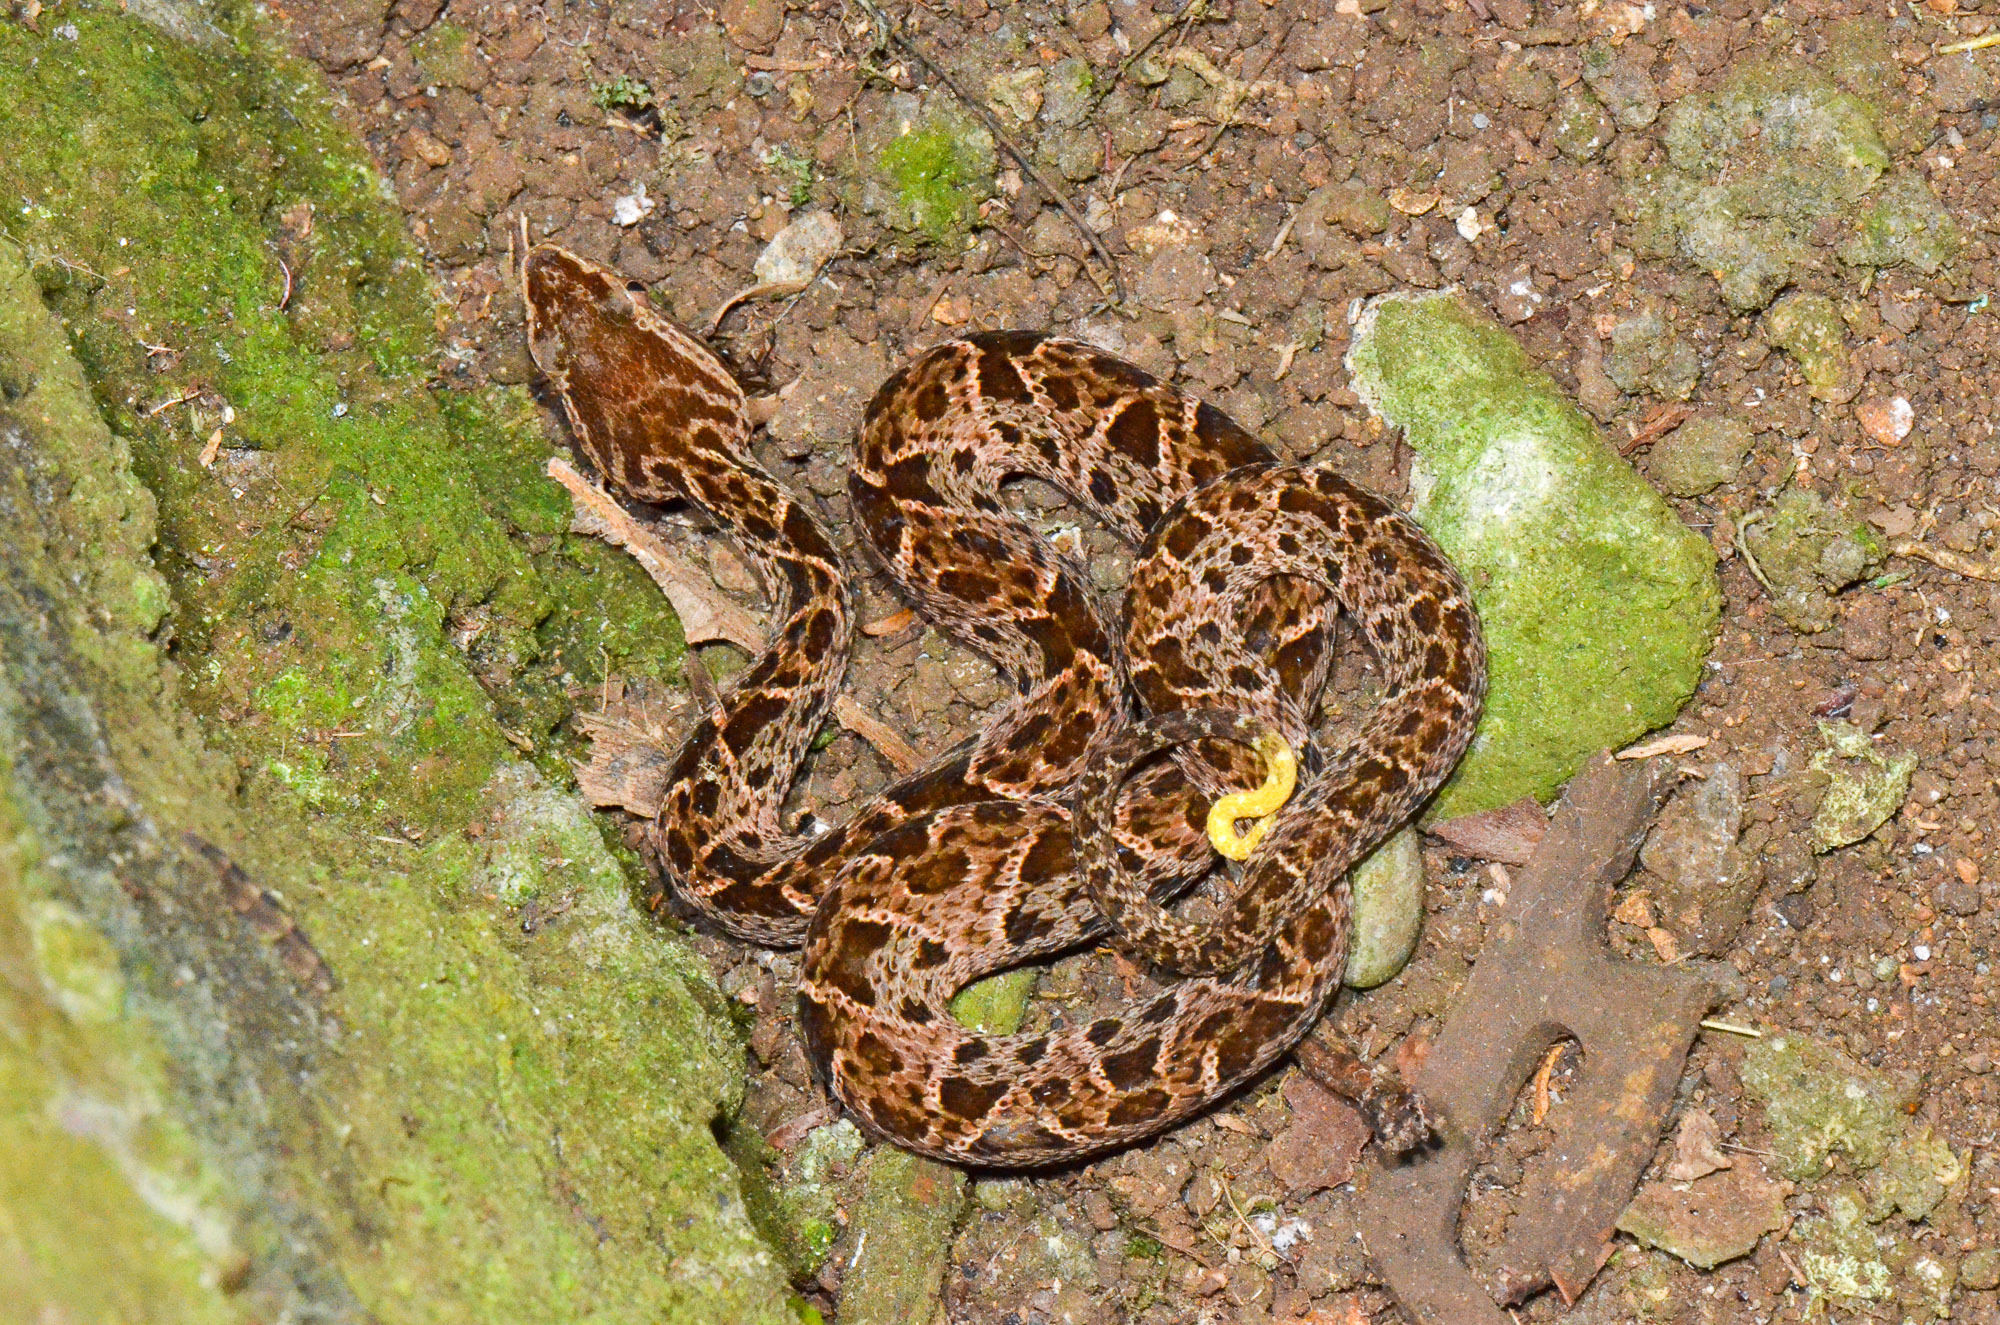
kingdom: Animalia
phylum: Chordata
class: Squamata
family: Viperidae
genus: Bothrops
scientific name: Bothrops asper
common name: Terciopelo
